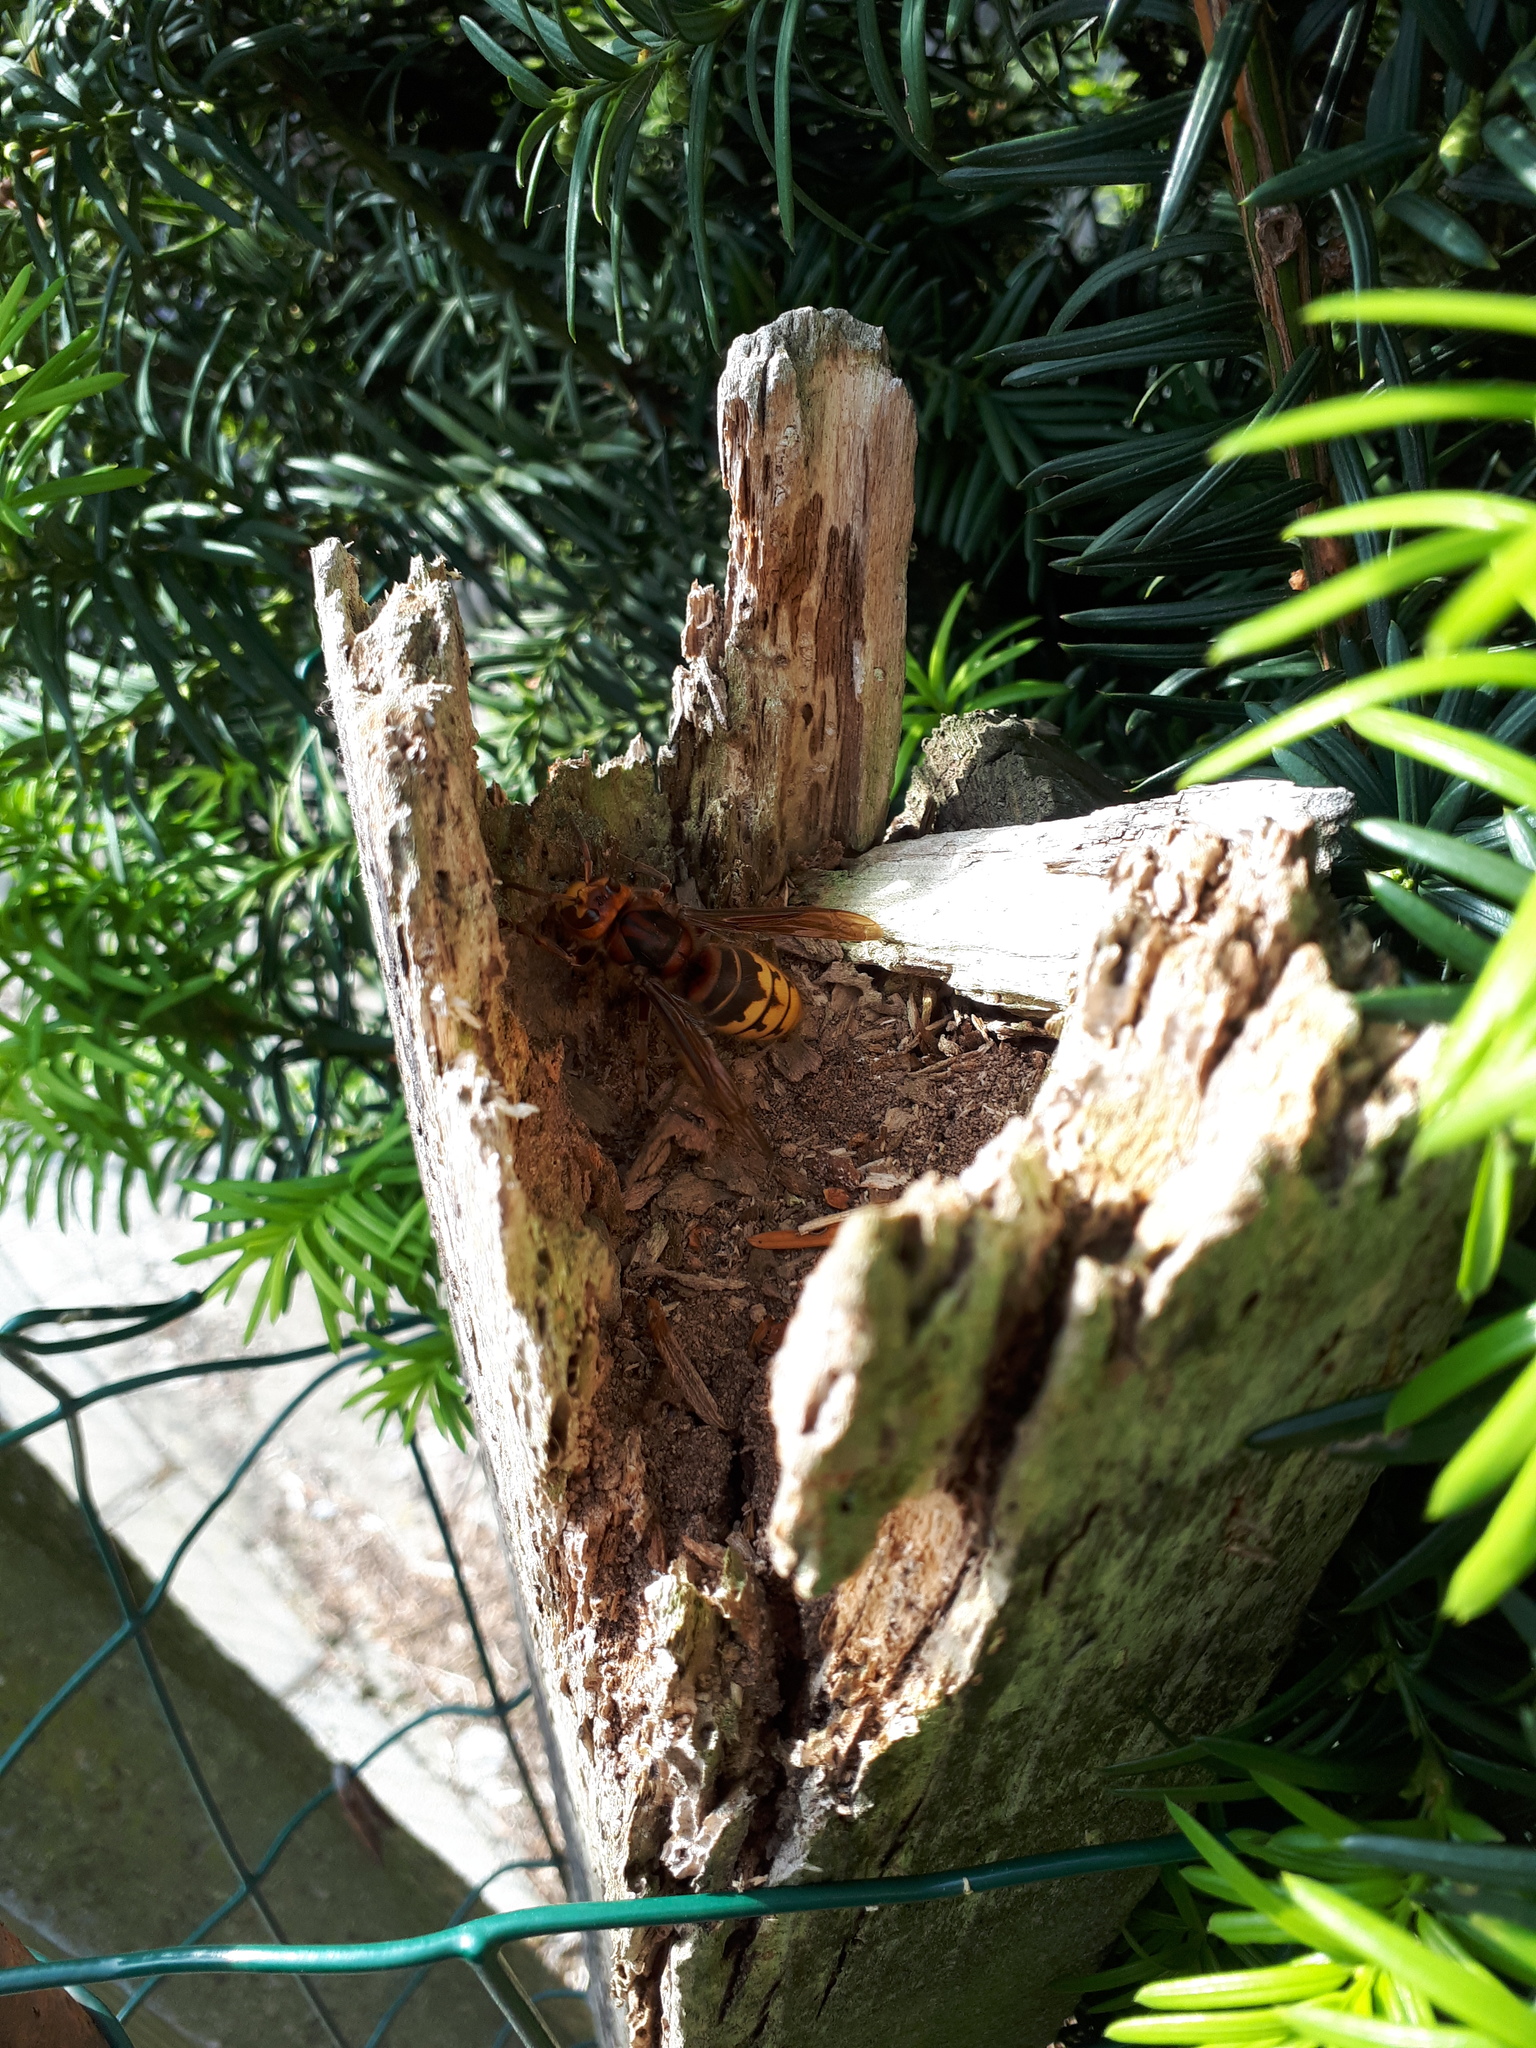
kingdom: Animalia
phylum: Arthropoda
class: Insecta
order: Hymenoptera
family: Vespidae
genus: Vespa
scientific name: Vespa crabro
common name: Hornet
